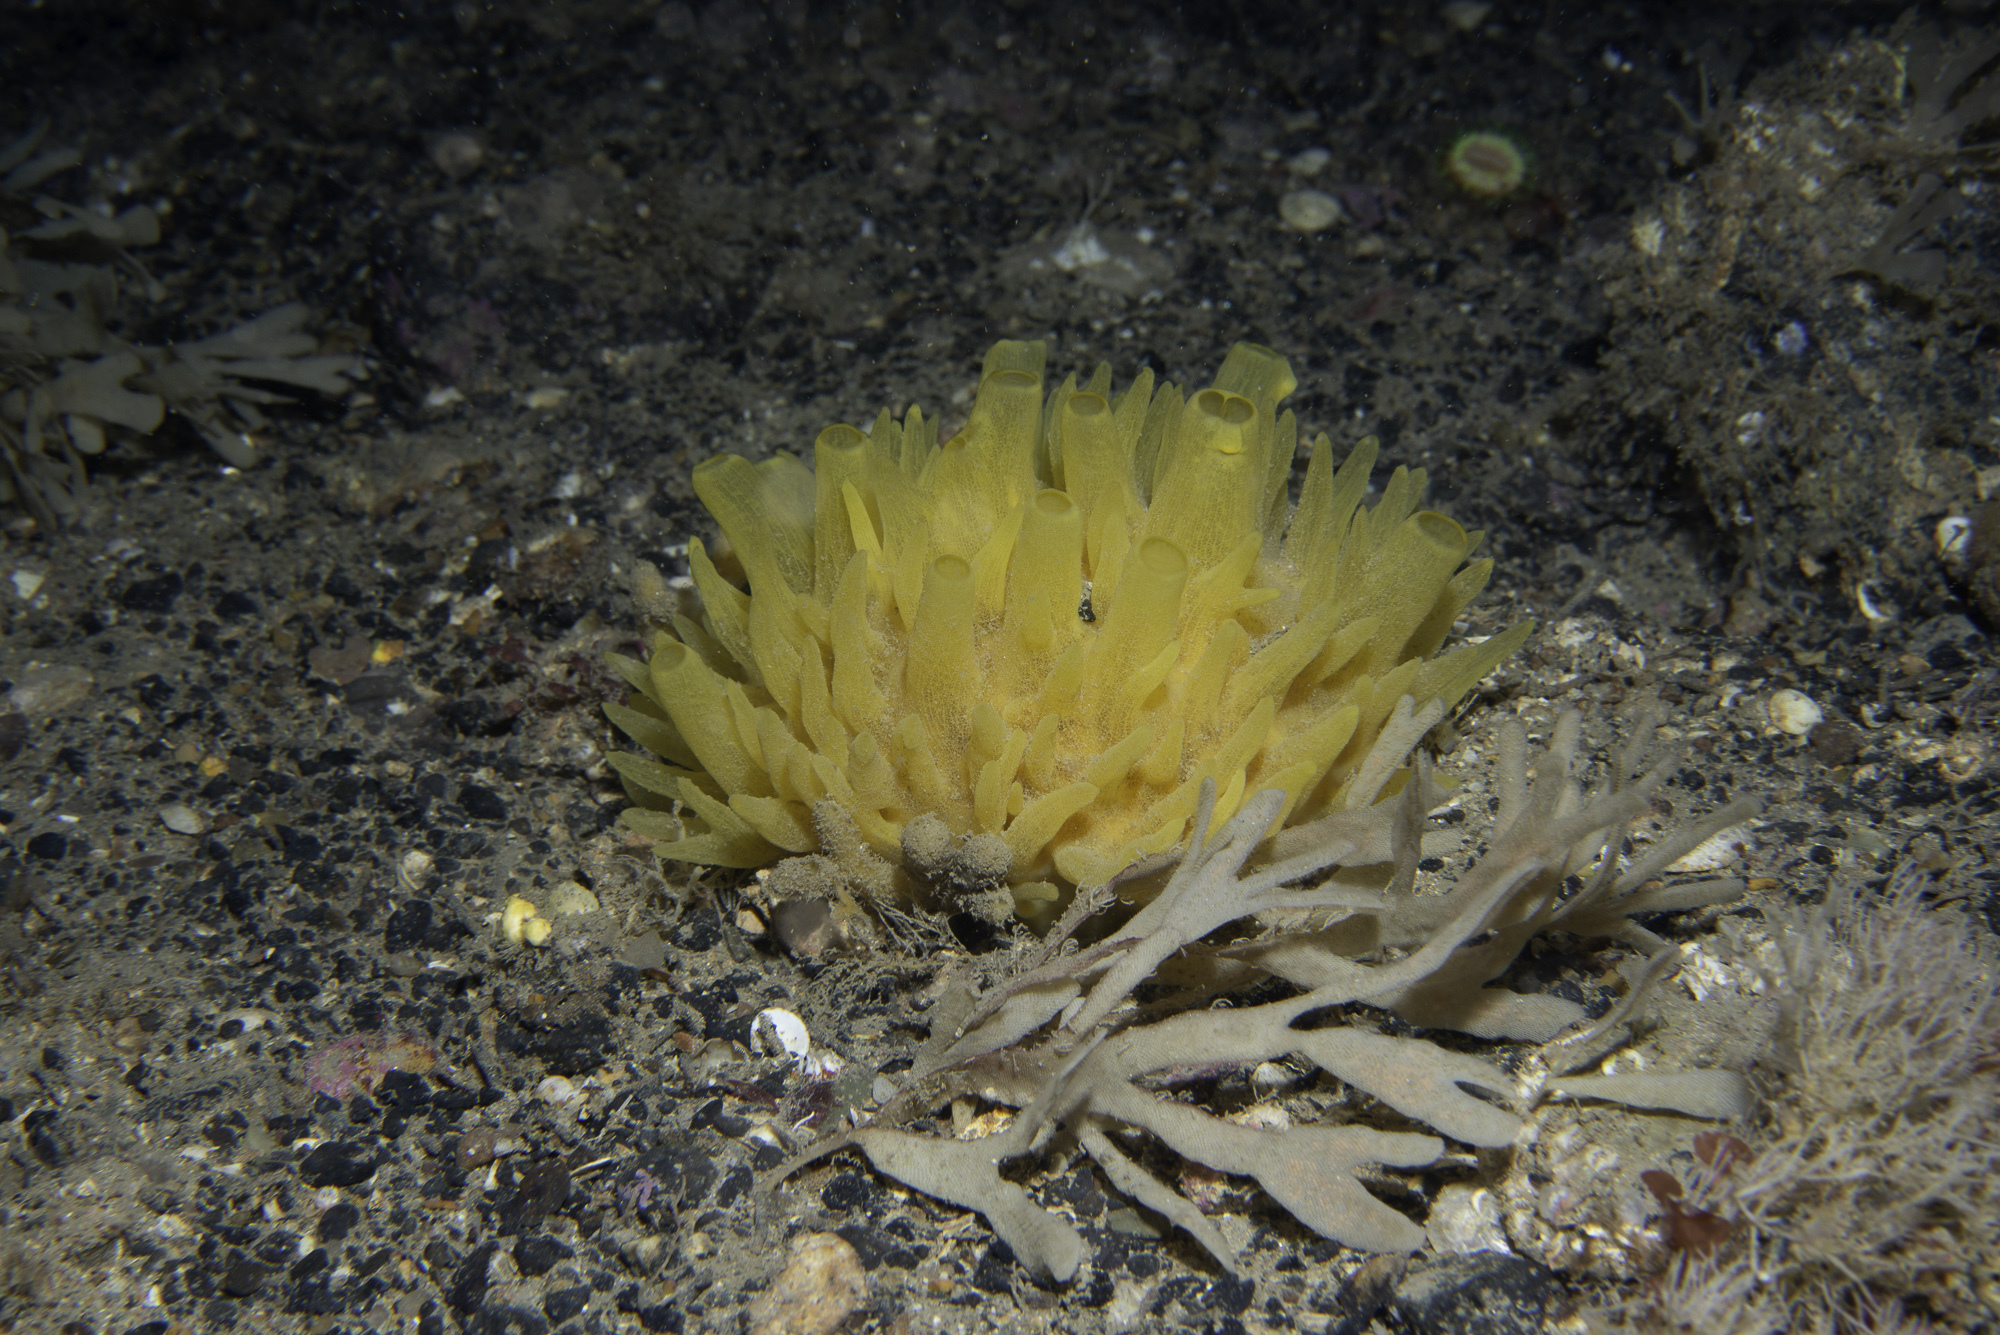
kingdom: Animalia
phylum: Porifera
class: Demospongiae
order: Polymastiida
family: Polymastiidae
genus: Polymastia
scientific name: Polymastia boletiformis
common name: Massive horny sponge
